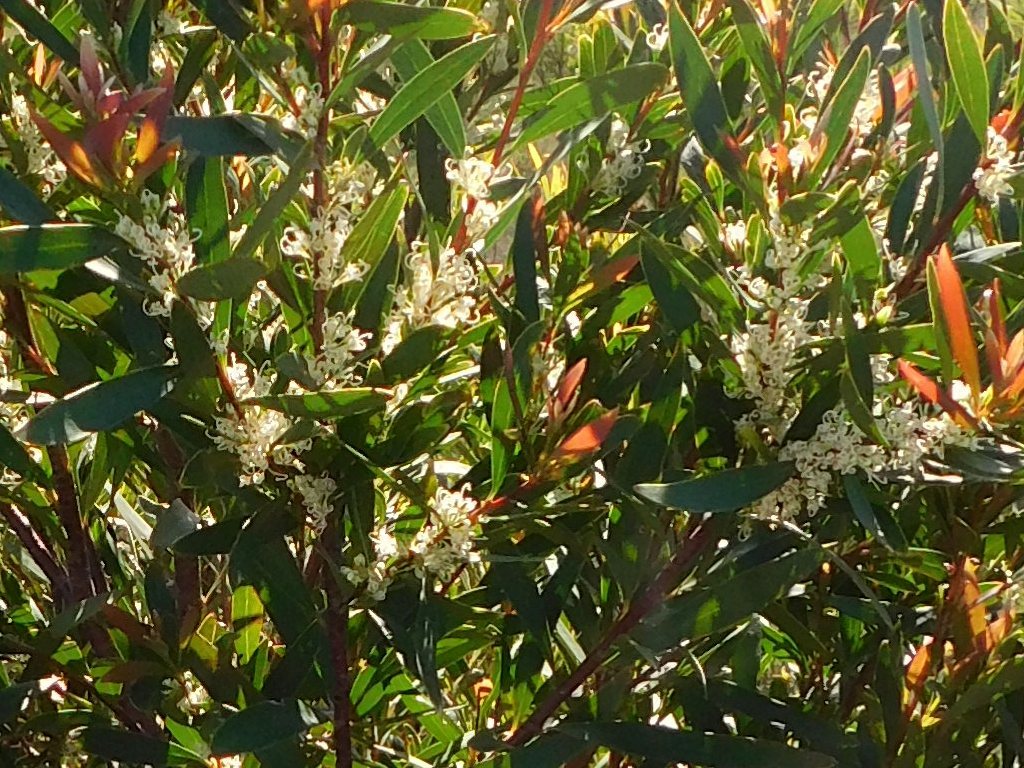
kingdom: Plantae
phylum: Tracheophyta
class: Magnoliopsida
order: Proteales
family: Proteaceae
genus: Hakea
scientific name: Hakea salicifolia
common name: Willow hakea
